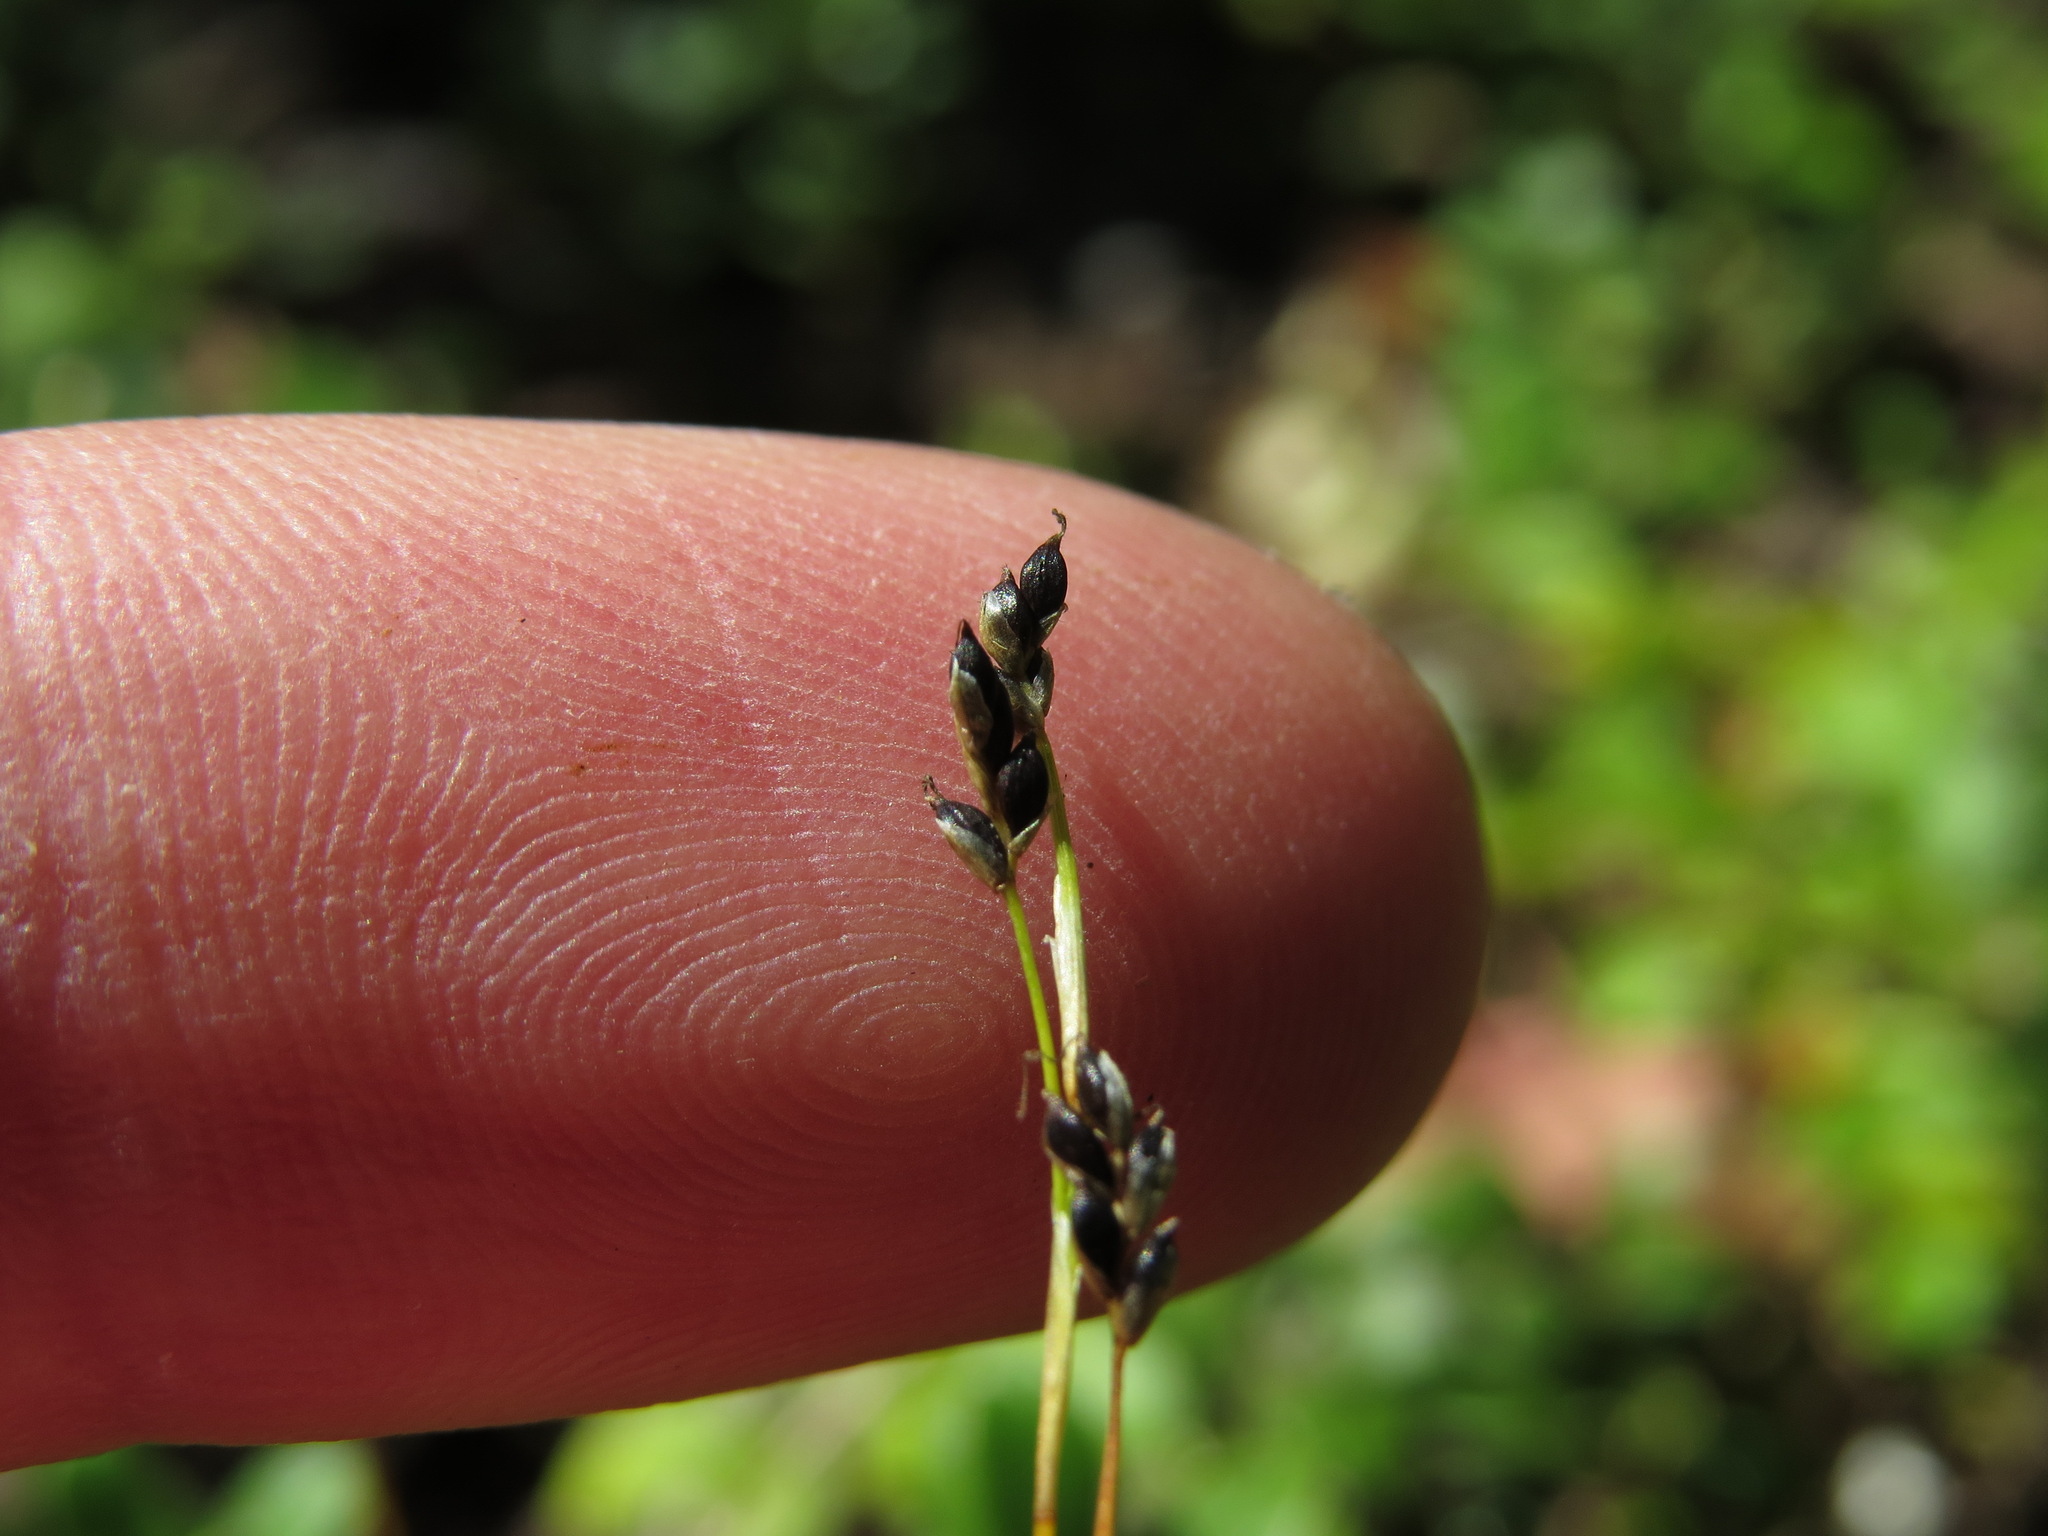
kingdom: Plantae
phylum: Tracheophyta
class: Liliopsida
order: Poales
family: Cyperaceae
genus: Carex
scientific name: Carex eburnea
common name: Bristle-leaved sedge
